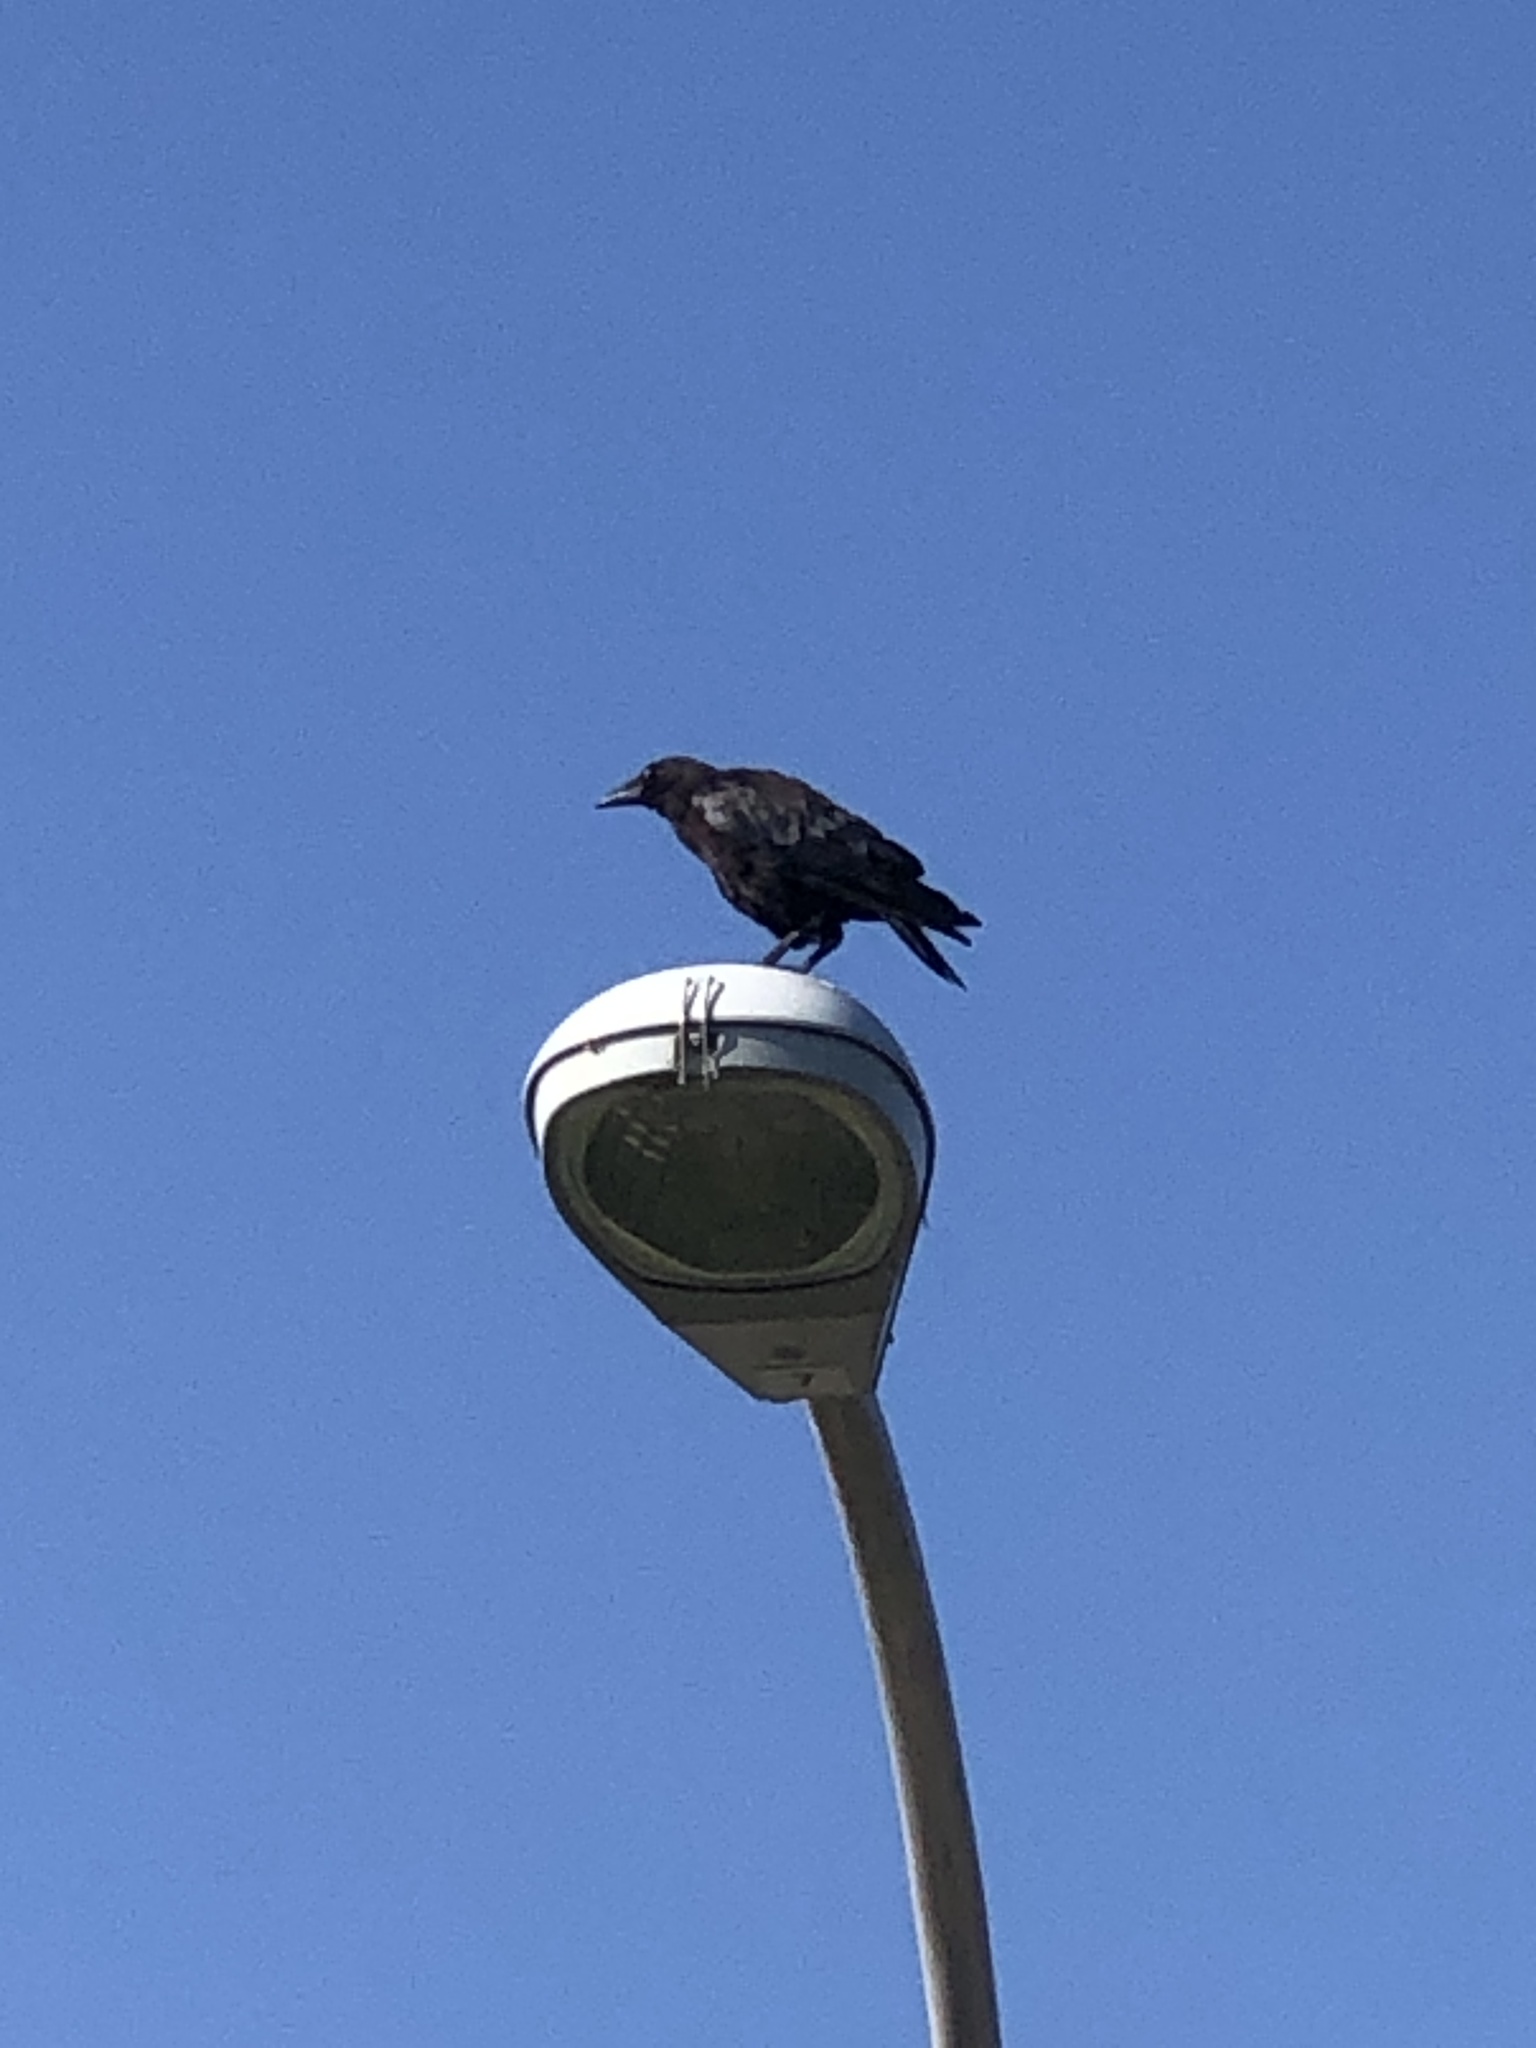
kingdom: Animalia
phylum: Chordata
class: Aves
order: Passeriformes
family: Corvidae
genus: Corvus
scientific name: Corvus brachyrhynchos
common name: American crow
